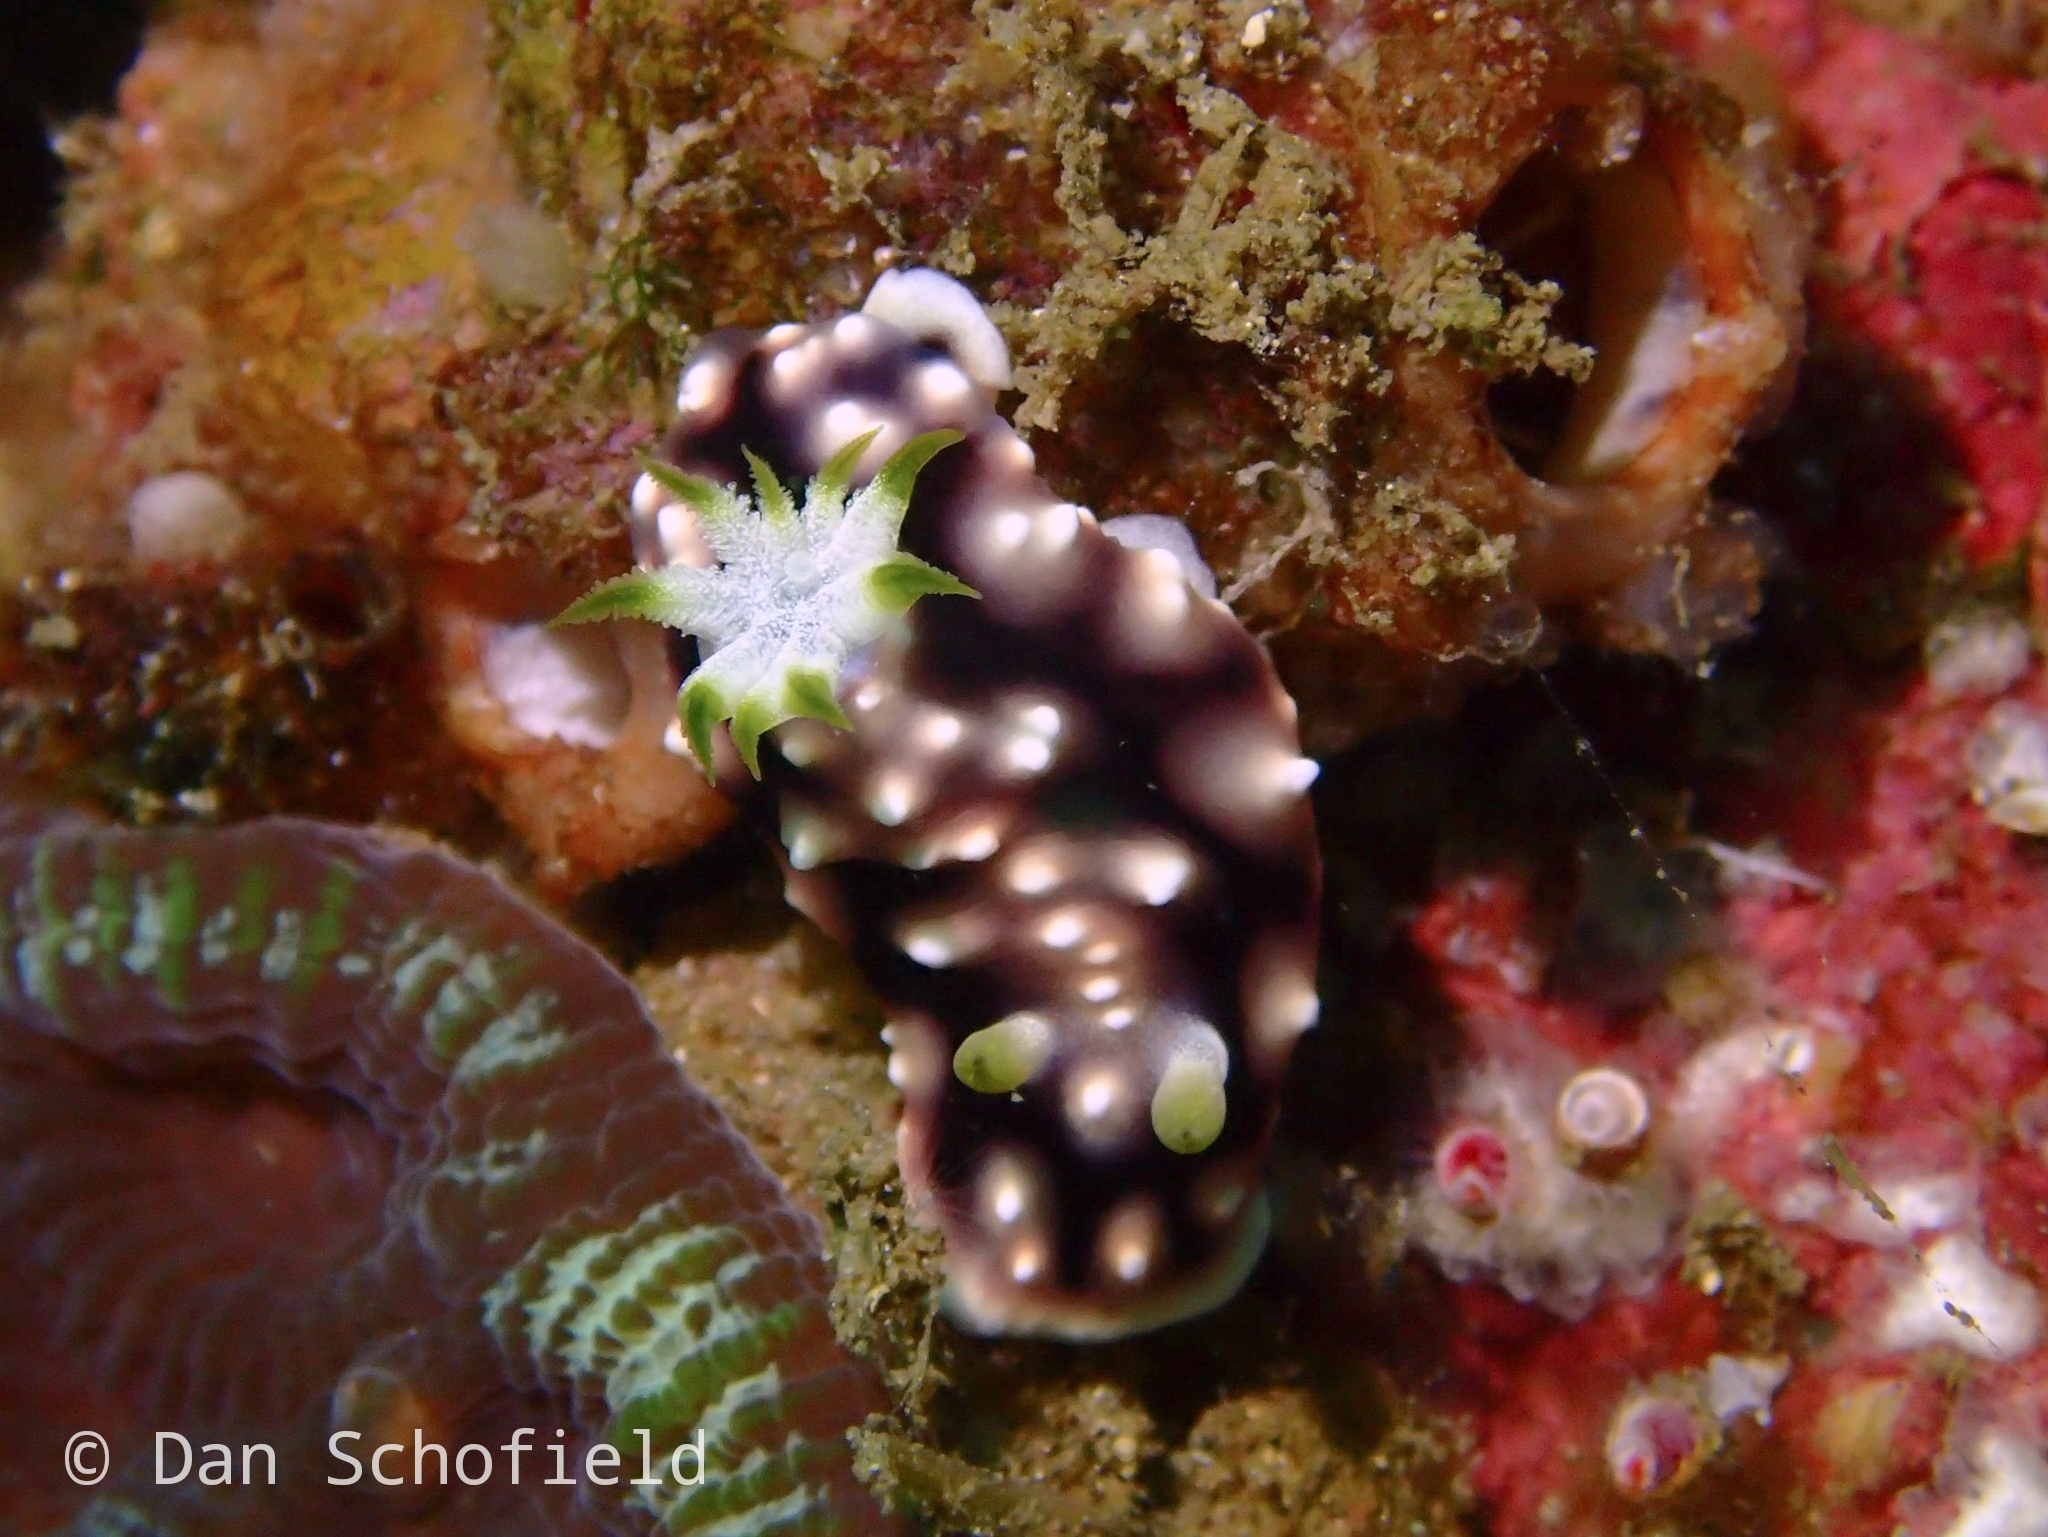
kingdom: Animalia
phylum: Mollusca
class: Gastropoda
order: Nudibranchia
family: Chromodorididae
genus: Goniobranchus
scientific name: Goniobranchus geometricus
